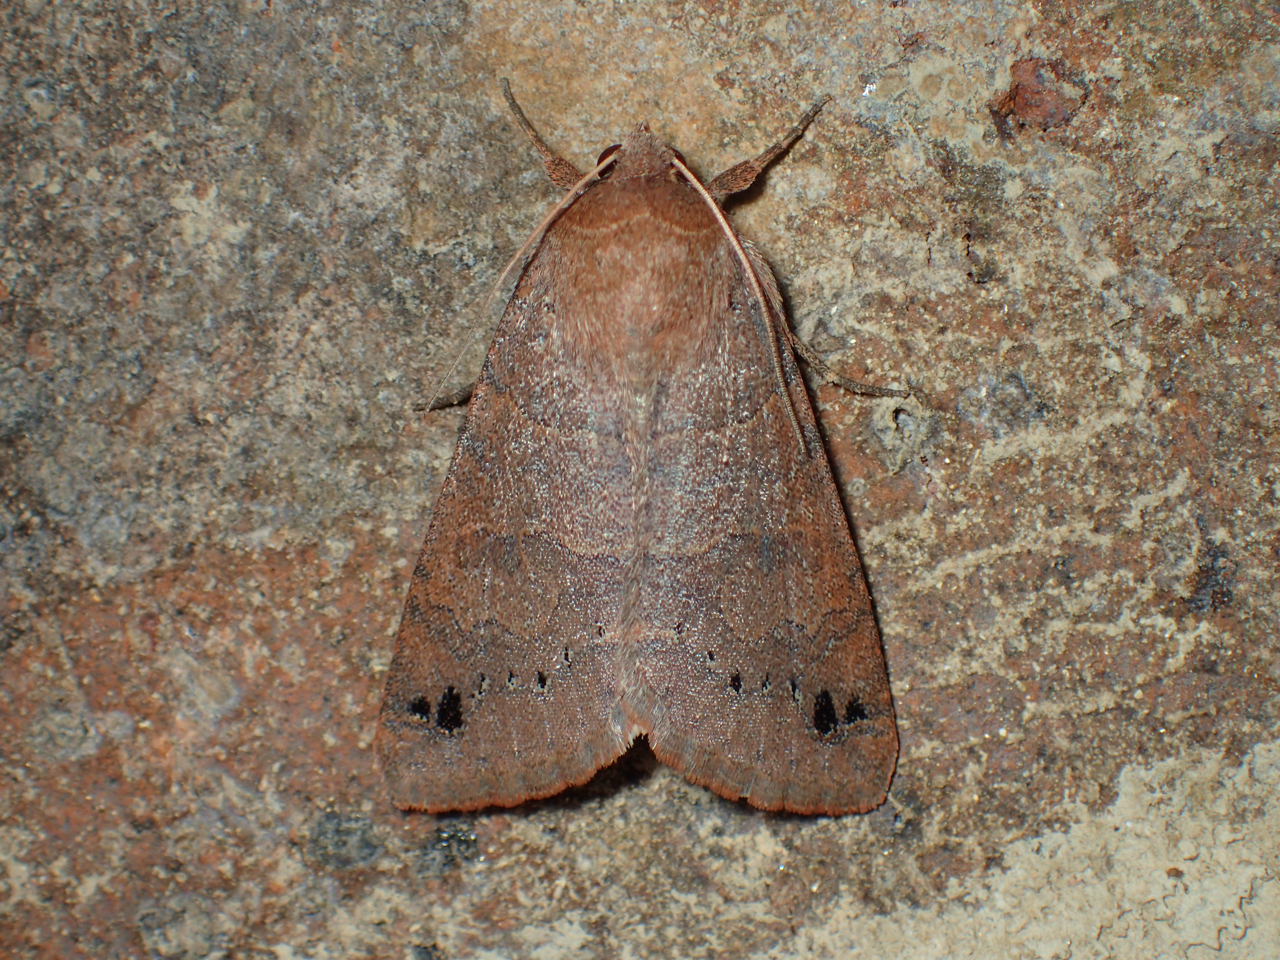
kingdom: Animalia
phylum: Arthropoda
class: Insecta
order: Lepidoptera
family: Erebidae
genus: Cissusa
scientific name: Cissusa spadix
